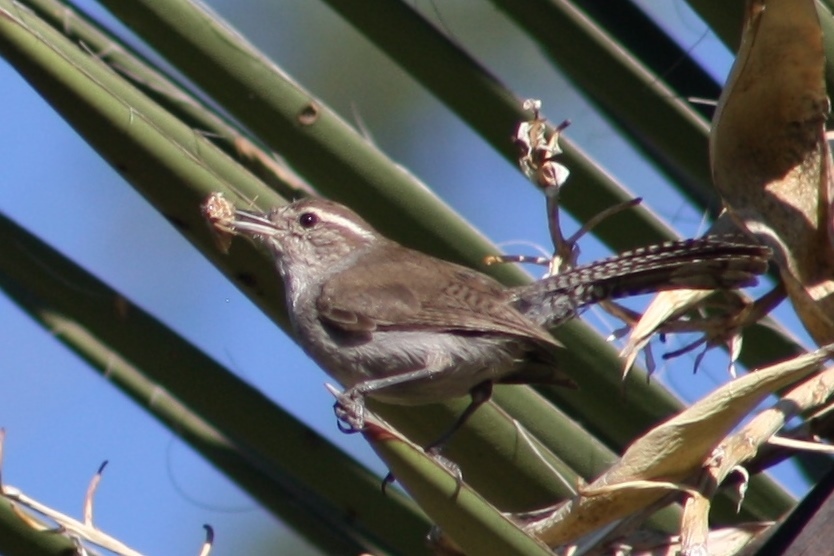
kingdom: Animalia
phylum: Chordata
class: Aves
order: Passeriformes
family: Troglodytidae
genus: Thryomanes
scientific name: Thryomanes bewickii
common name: Bewick's wren
